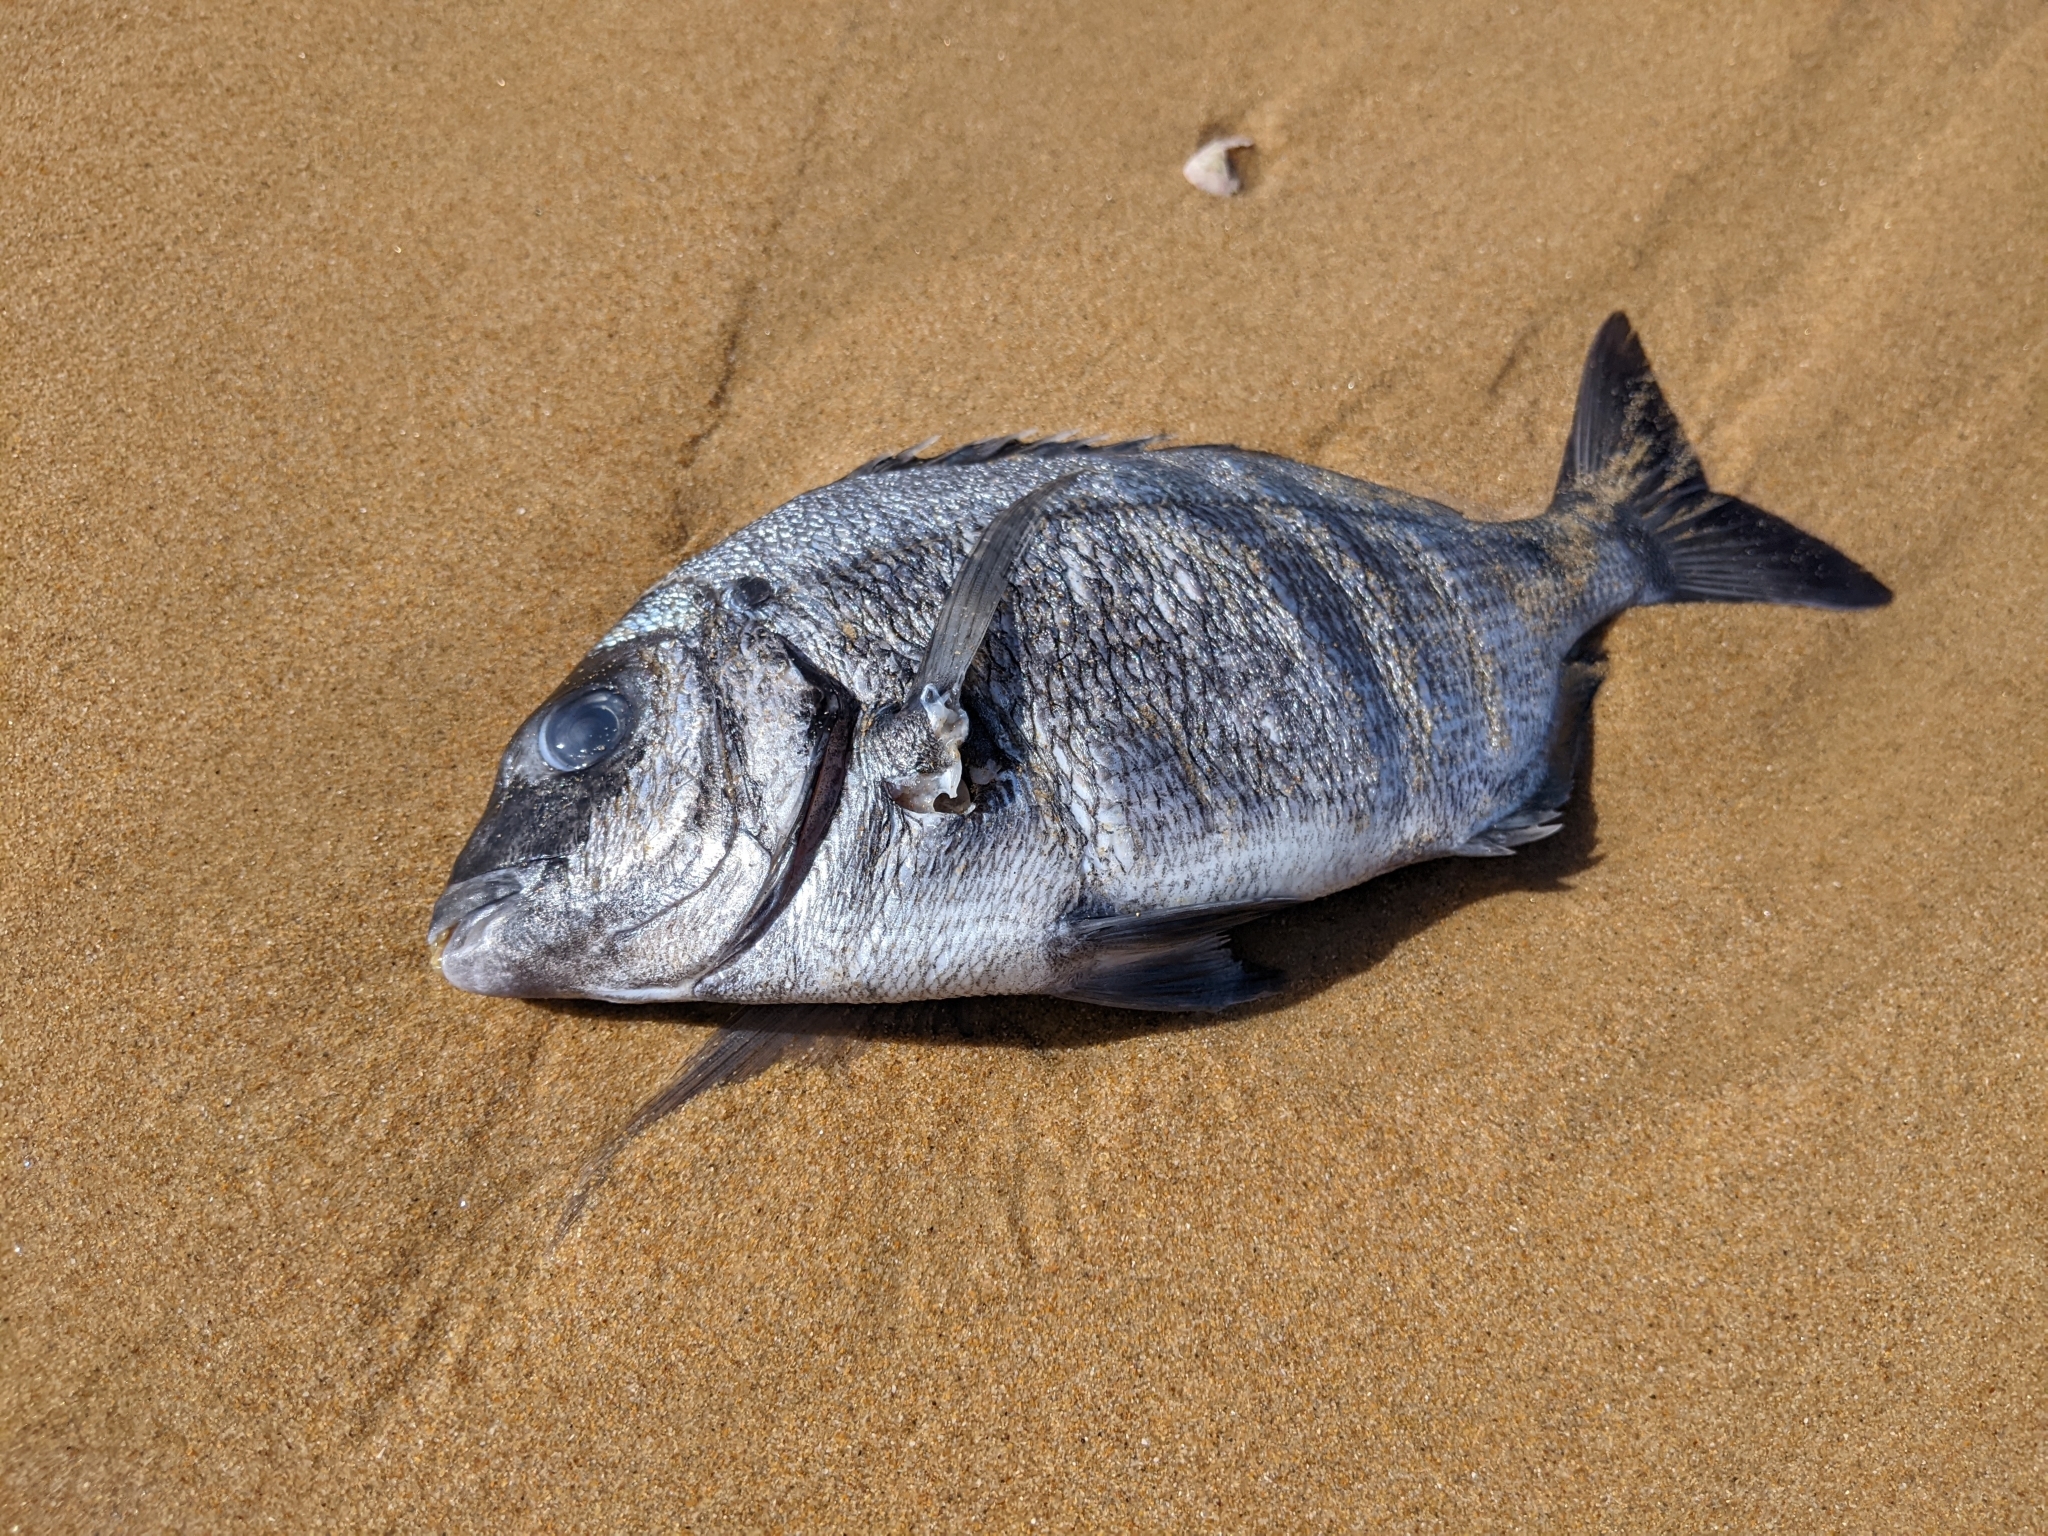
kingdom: Animalia
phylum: Chordata
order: Perciformes
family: Sparidae
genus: Diplodus
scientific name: Diplodus cadenati
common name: Moroccan white seabream
